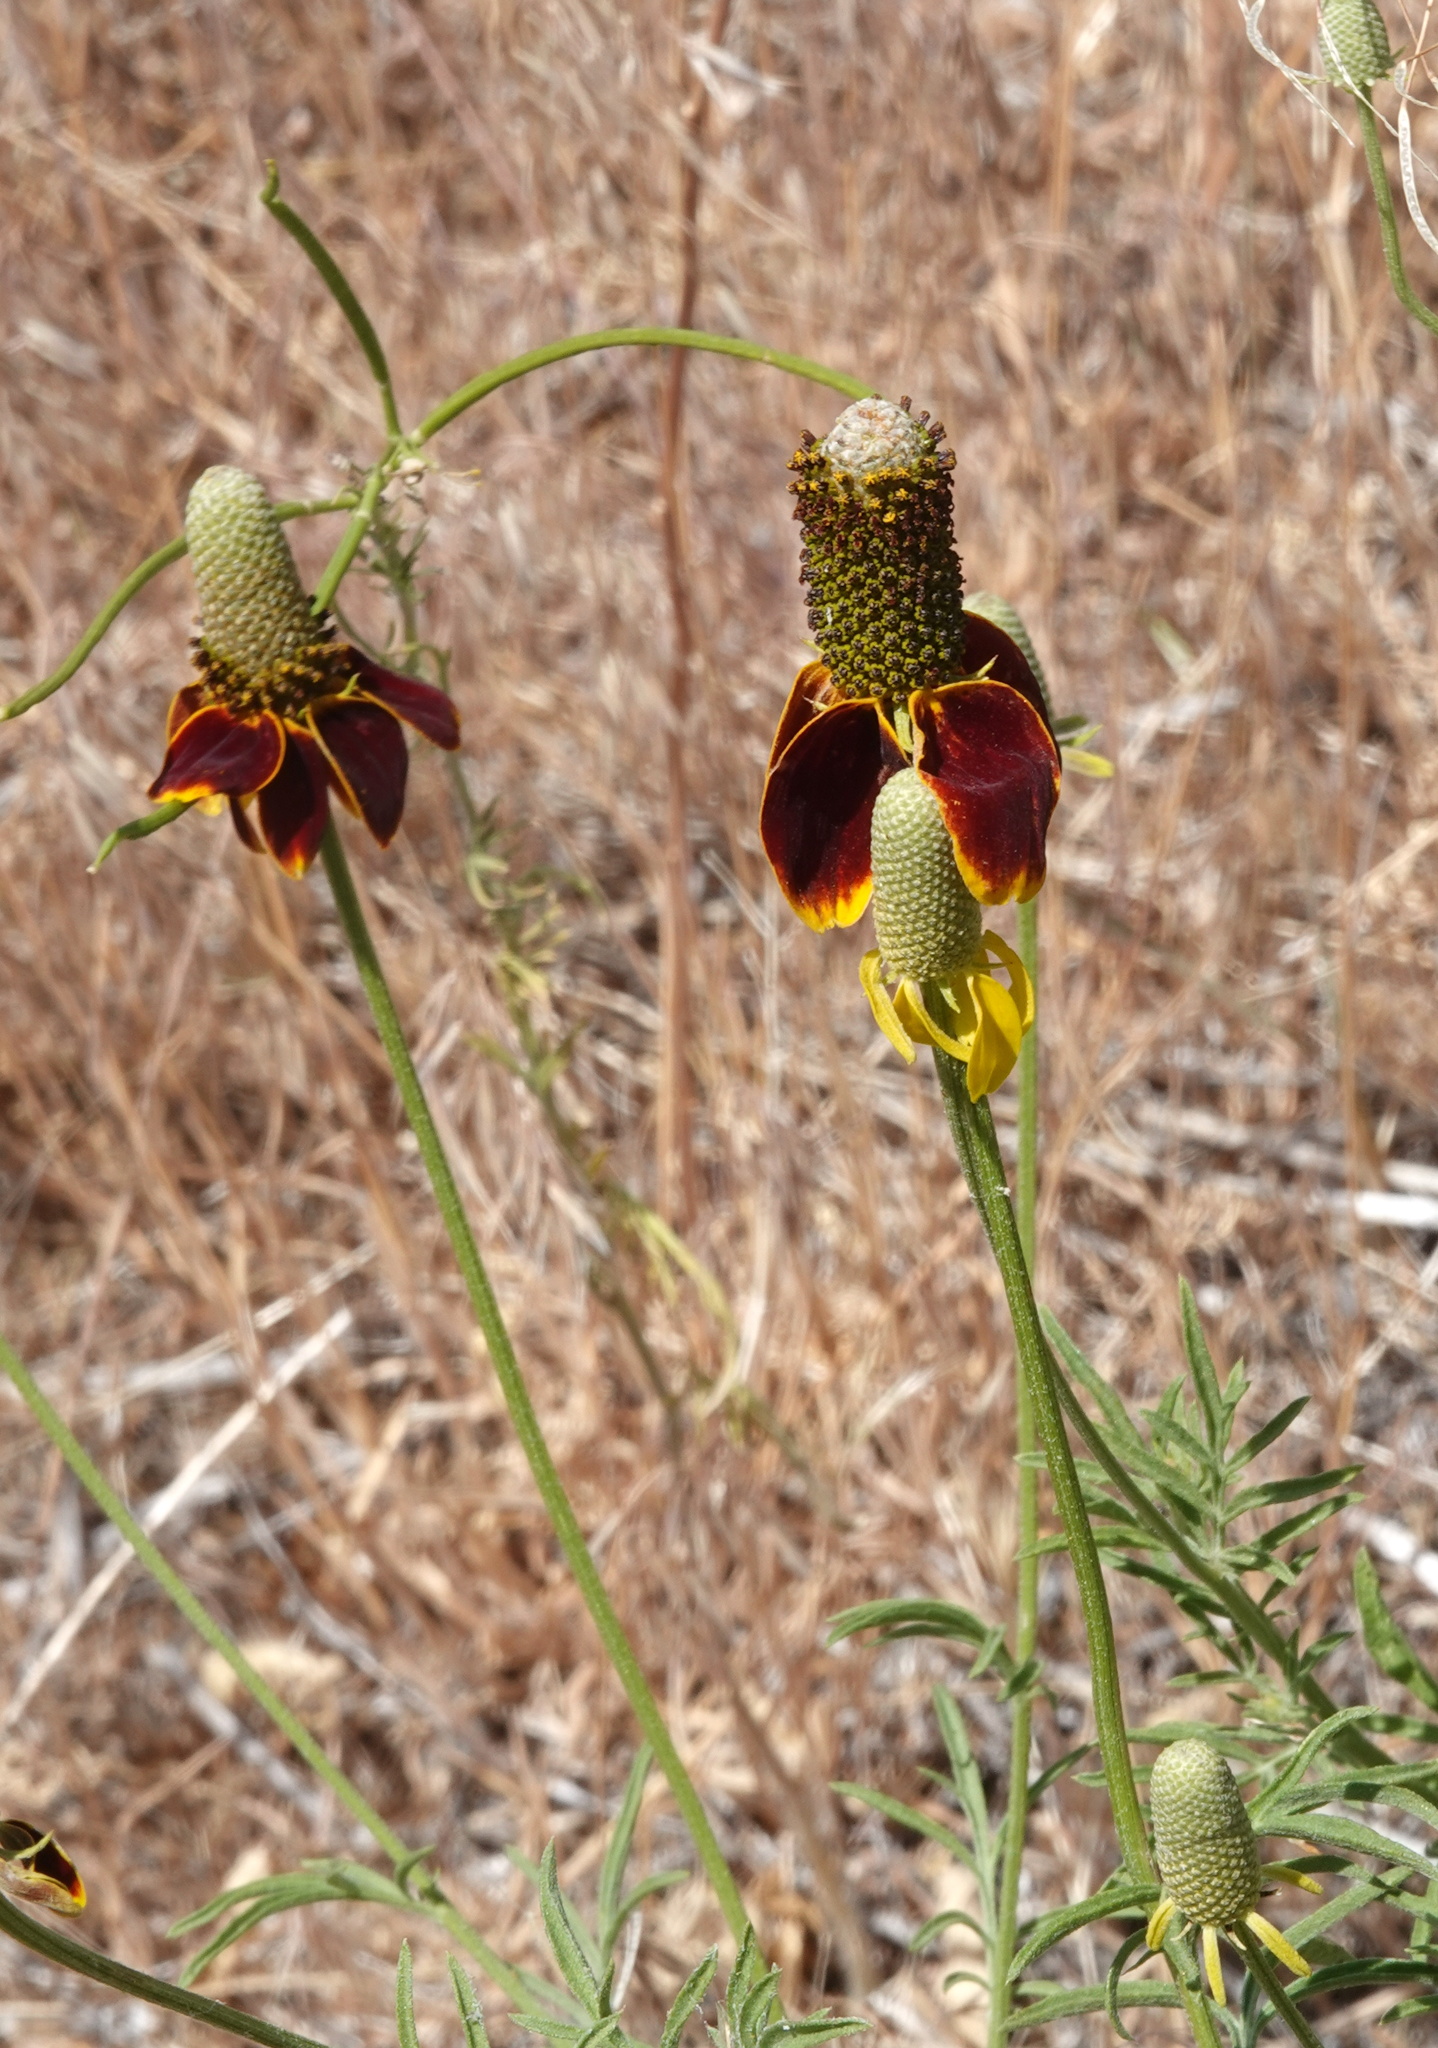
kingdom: Plantae
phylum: Tracheophyta
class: Magnoliopsida
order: Asterales
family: Asteraceae
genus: Ratibida
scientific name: Ratibida columnifera
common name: Prairie coneflower
